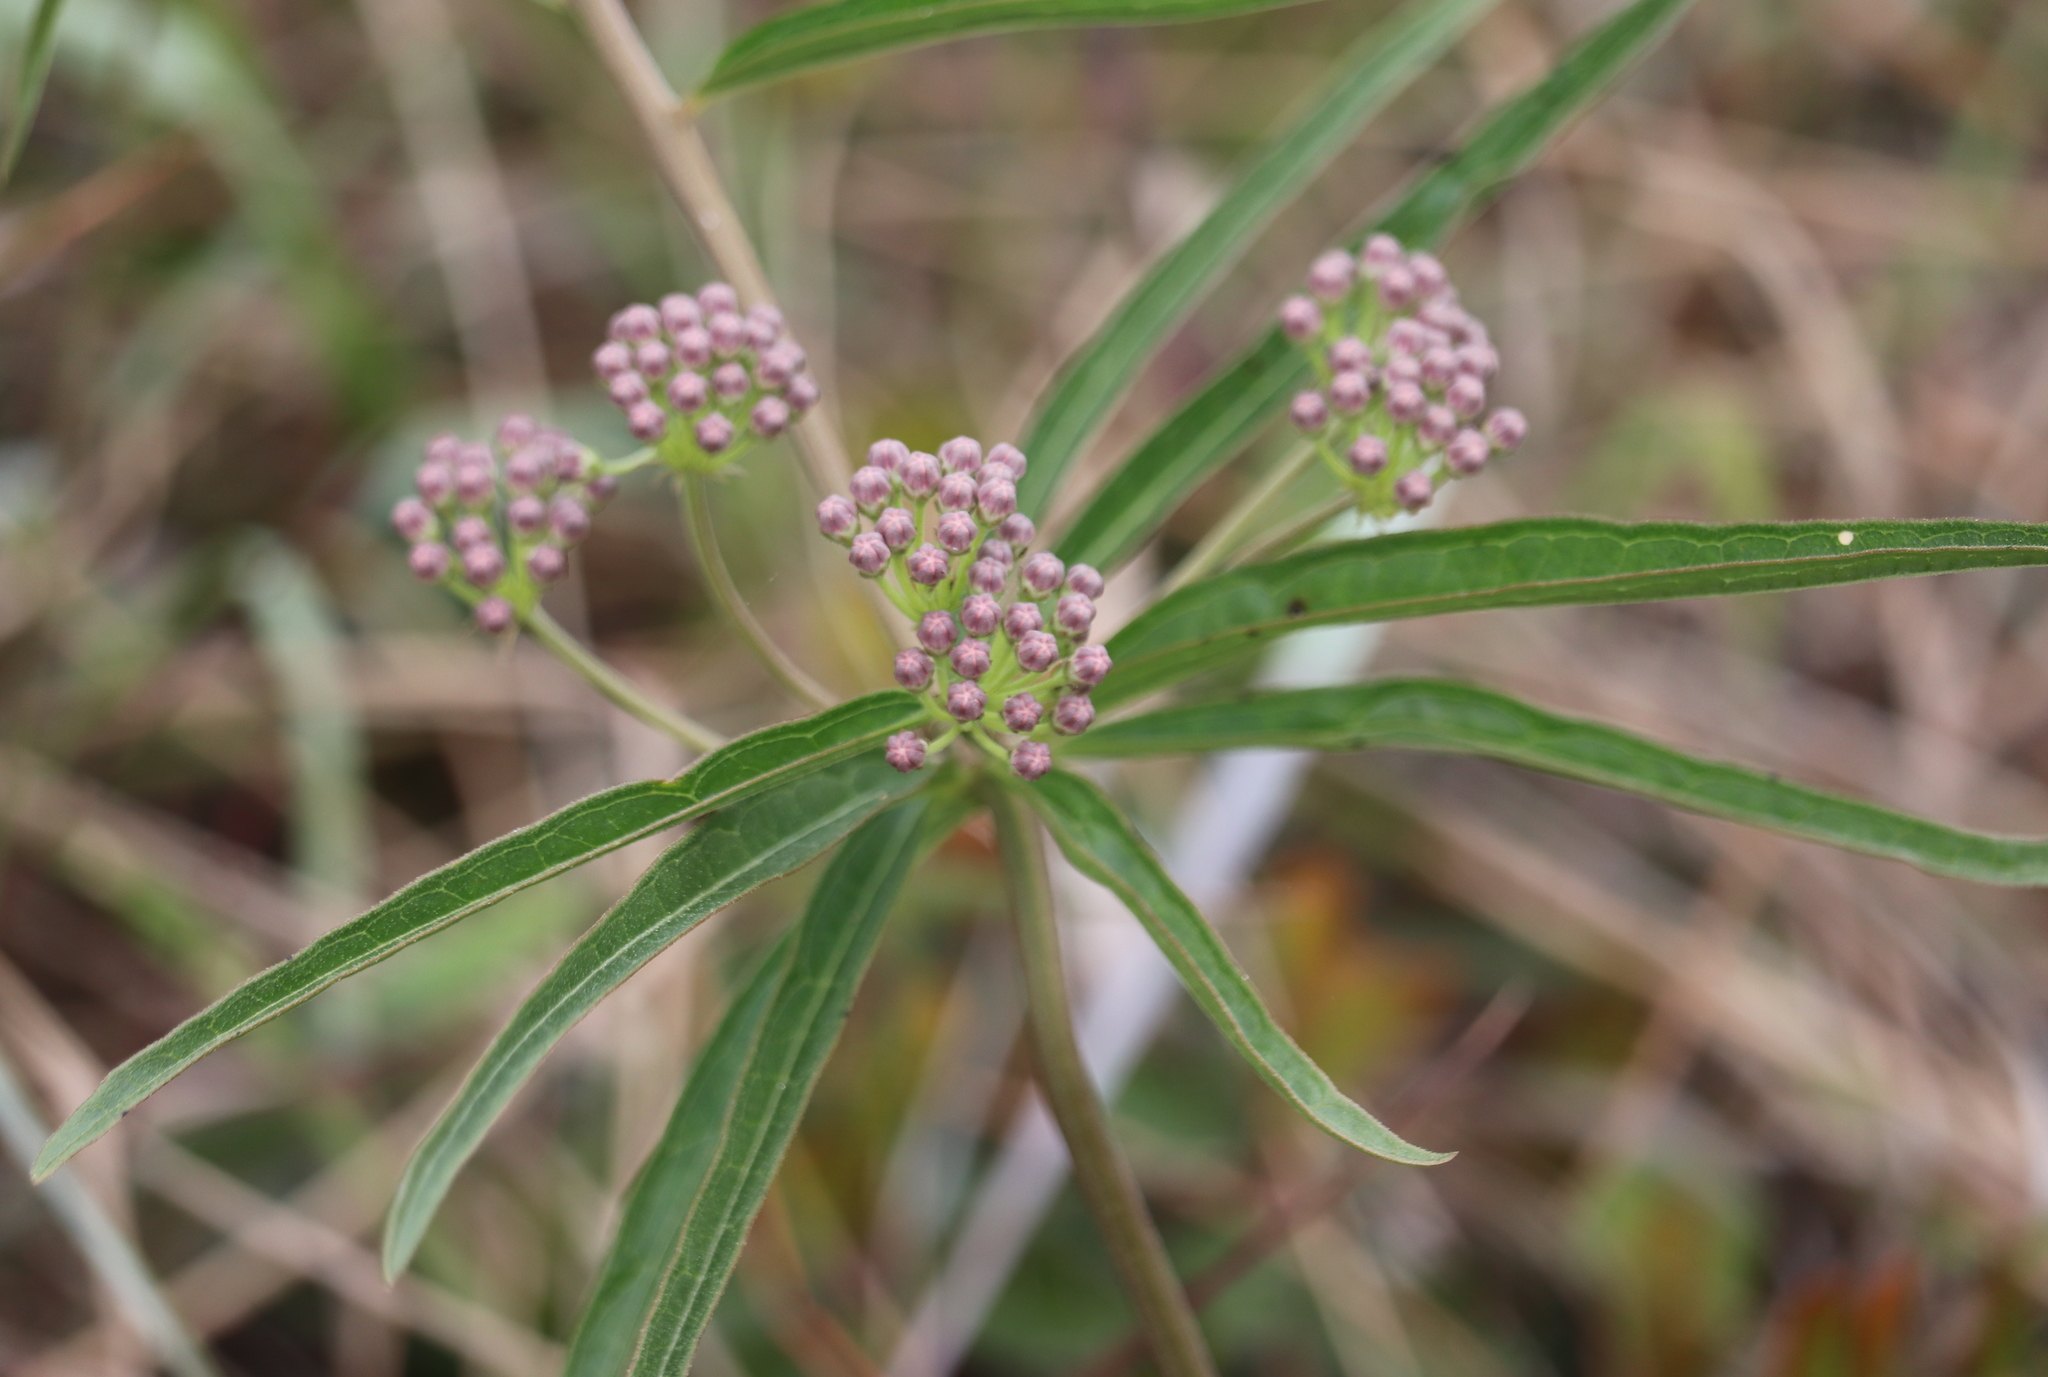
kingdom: Plantae
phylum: Tracheophyta
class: Magnoliopsida
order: Gentianales
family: Apocynaceae
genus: Asclepias
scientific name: Asclepias longifolia
